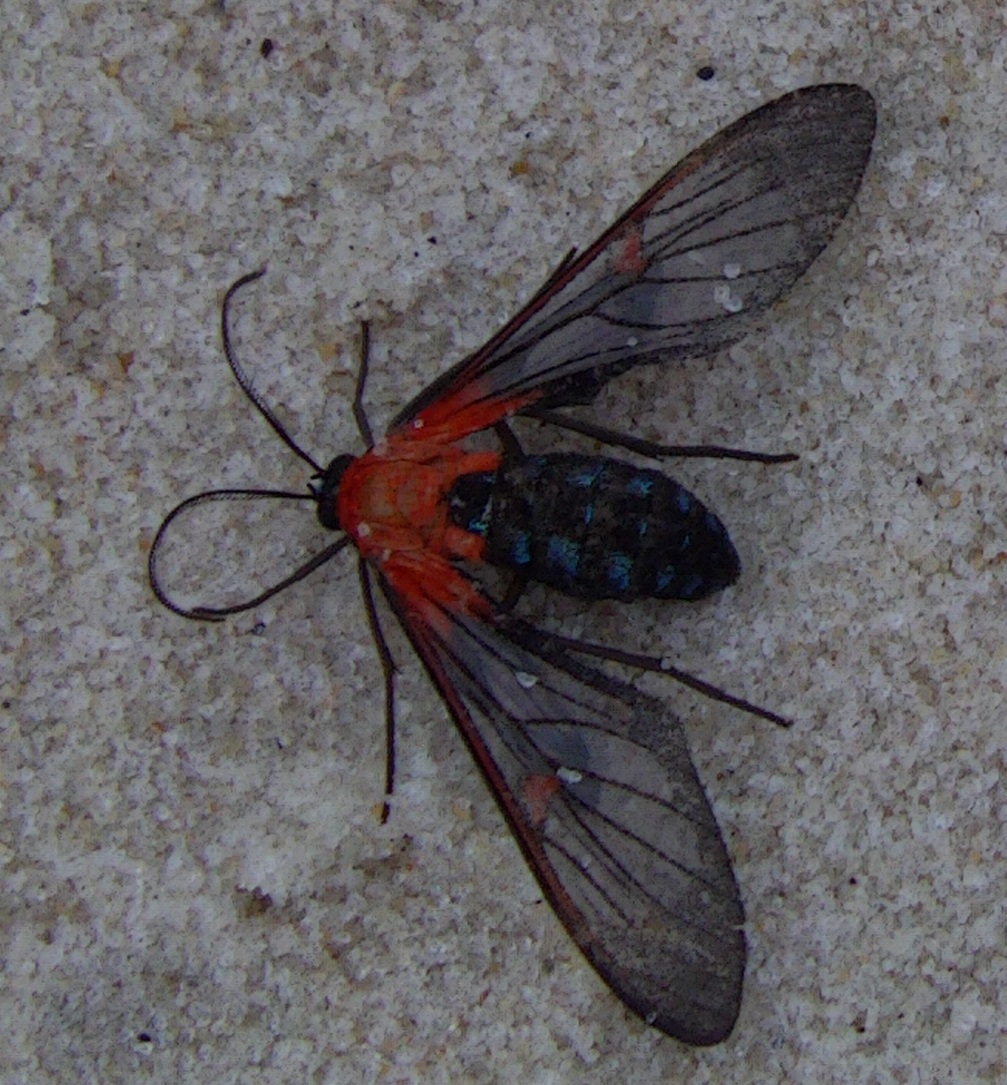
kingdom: Animalia
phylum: Arthropoda
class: Insecta
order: Lepidoptera
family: Erebidae
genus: Lepidoneiva
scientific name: Lepidoneiva teuthras
